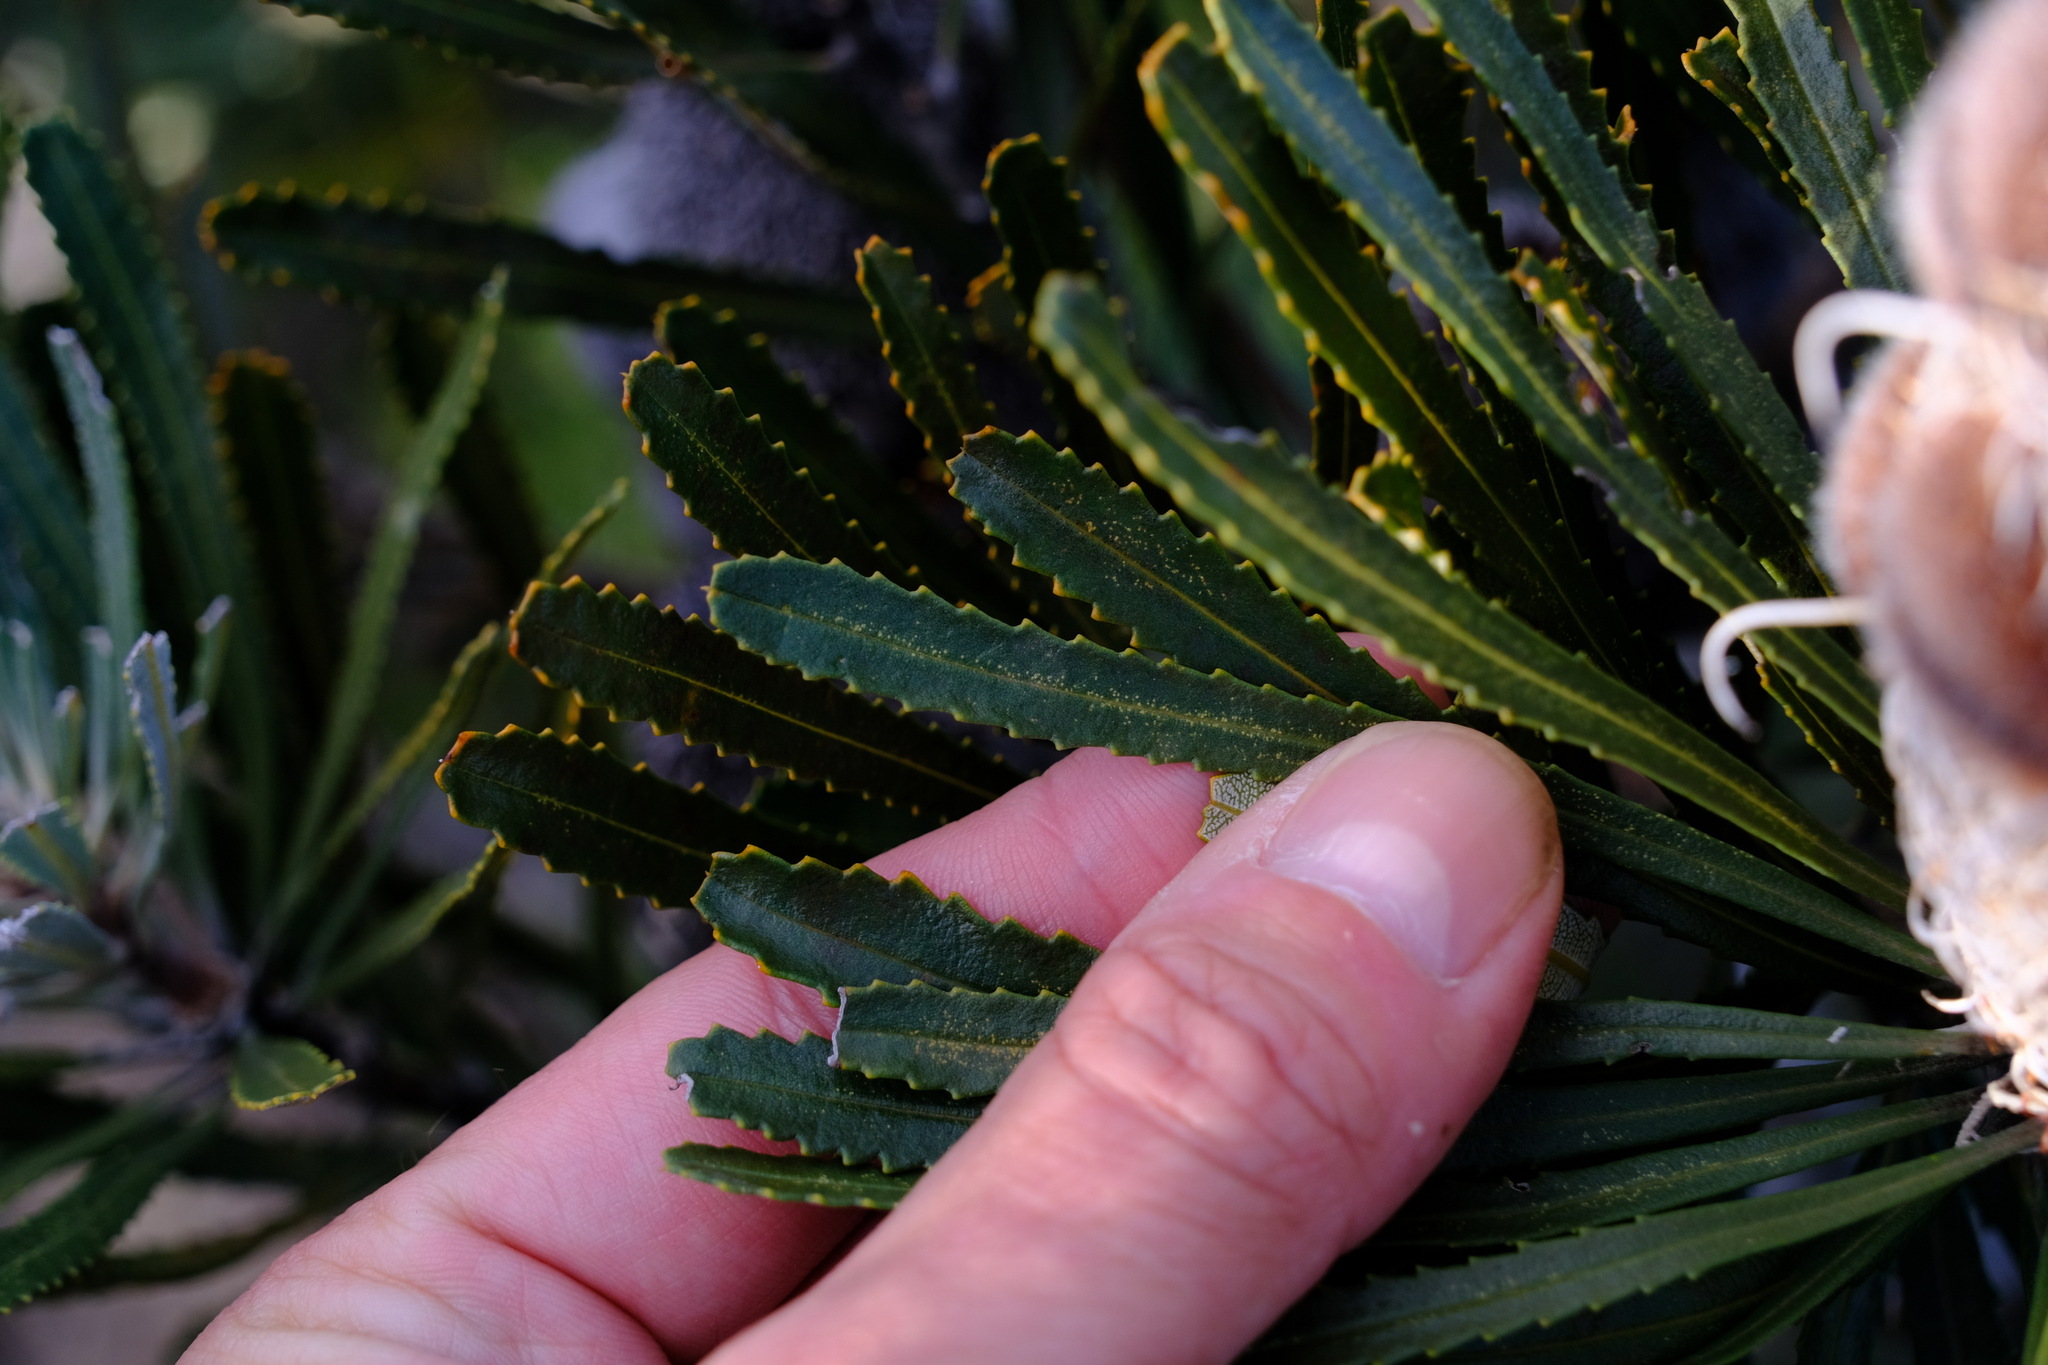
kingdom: Plantae
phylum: Tracheophyta
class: Magnoliopsida
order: Proteales
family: Proteaceae
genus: Banksia
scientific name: Banksia hookeriana
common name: Hooker's banksia
